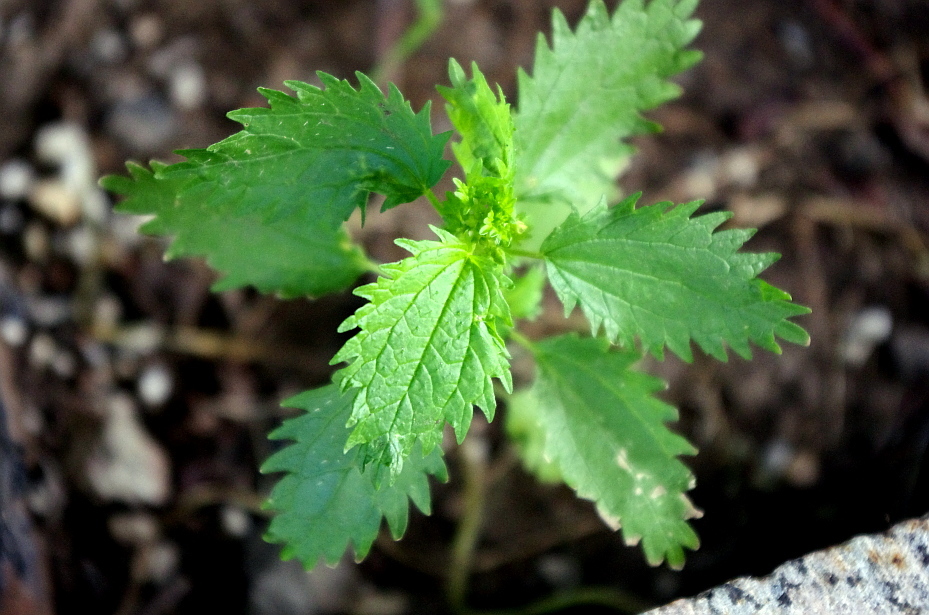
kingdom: Plantae
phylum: Tracheophyta
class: Magnoliopsida
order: Rosales
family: Urticaceae
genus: Urtica
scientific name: Urtica urens
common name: Dwarf nettle
